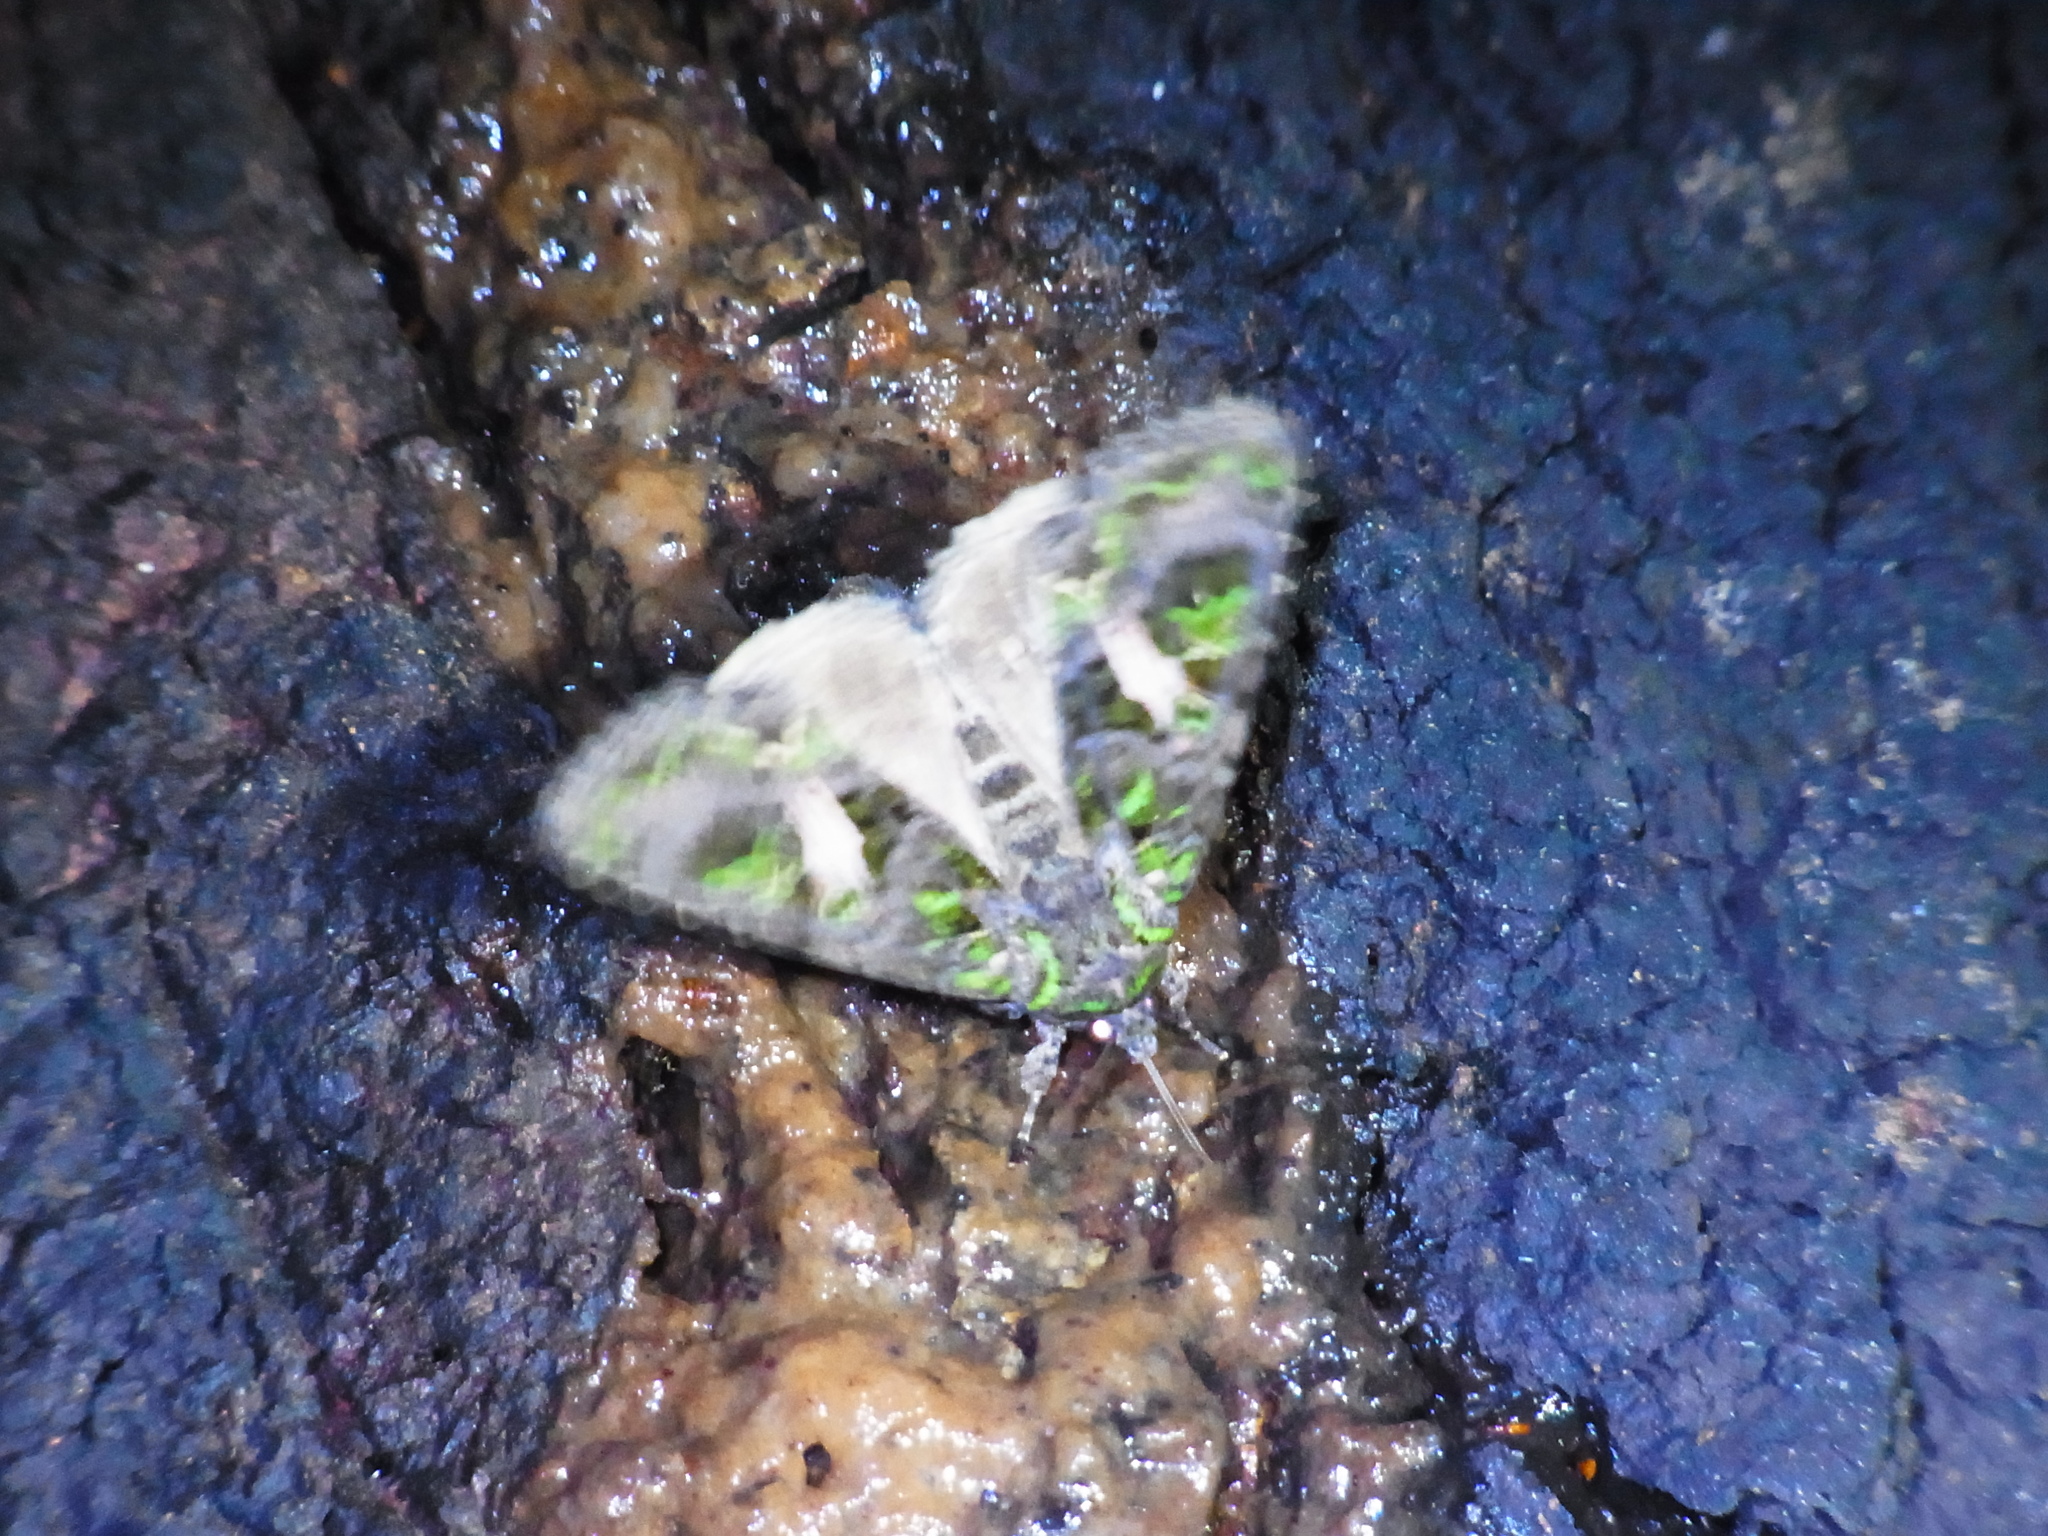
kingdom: Animalia
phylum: Arthropoda
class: Insecta
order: Lepidoptera
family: Noctuidae
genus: Trachea
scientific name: Trachea atriplicis
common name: Orache moth
